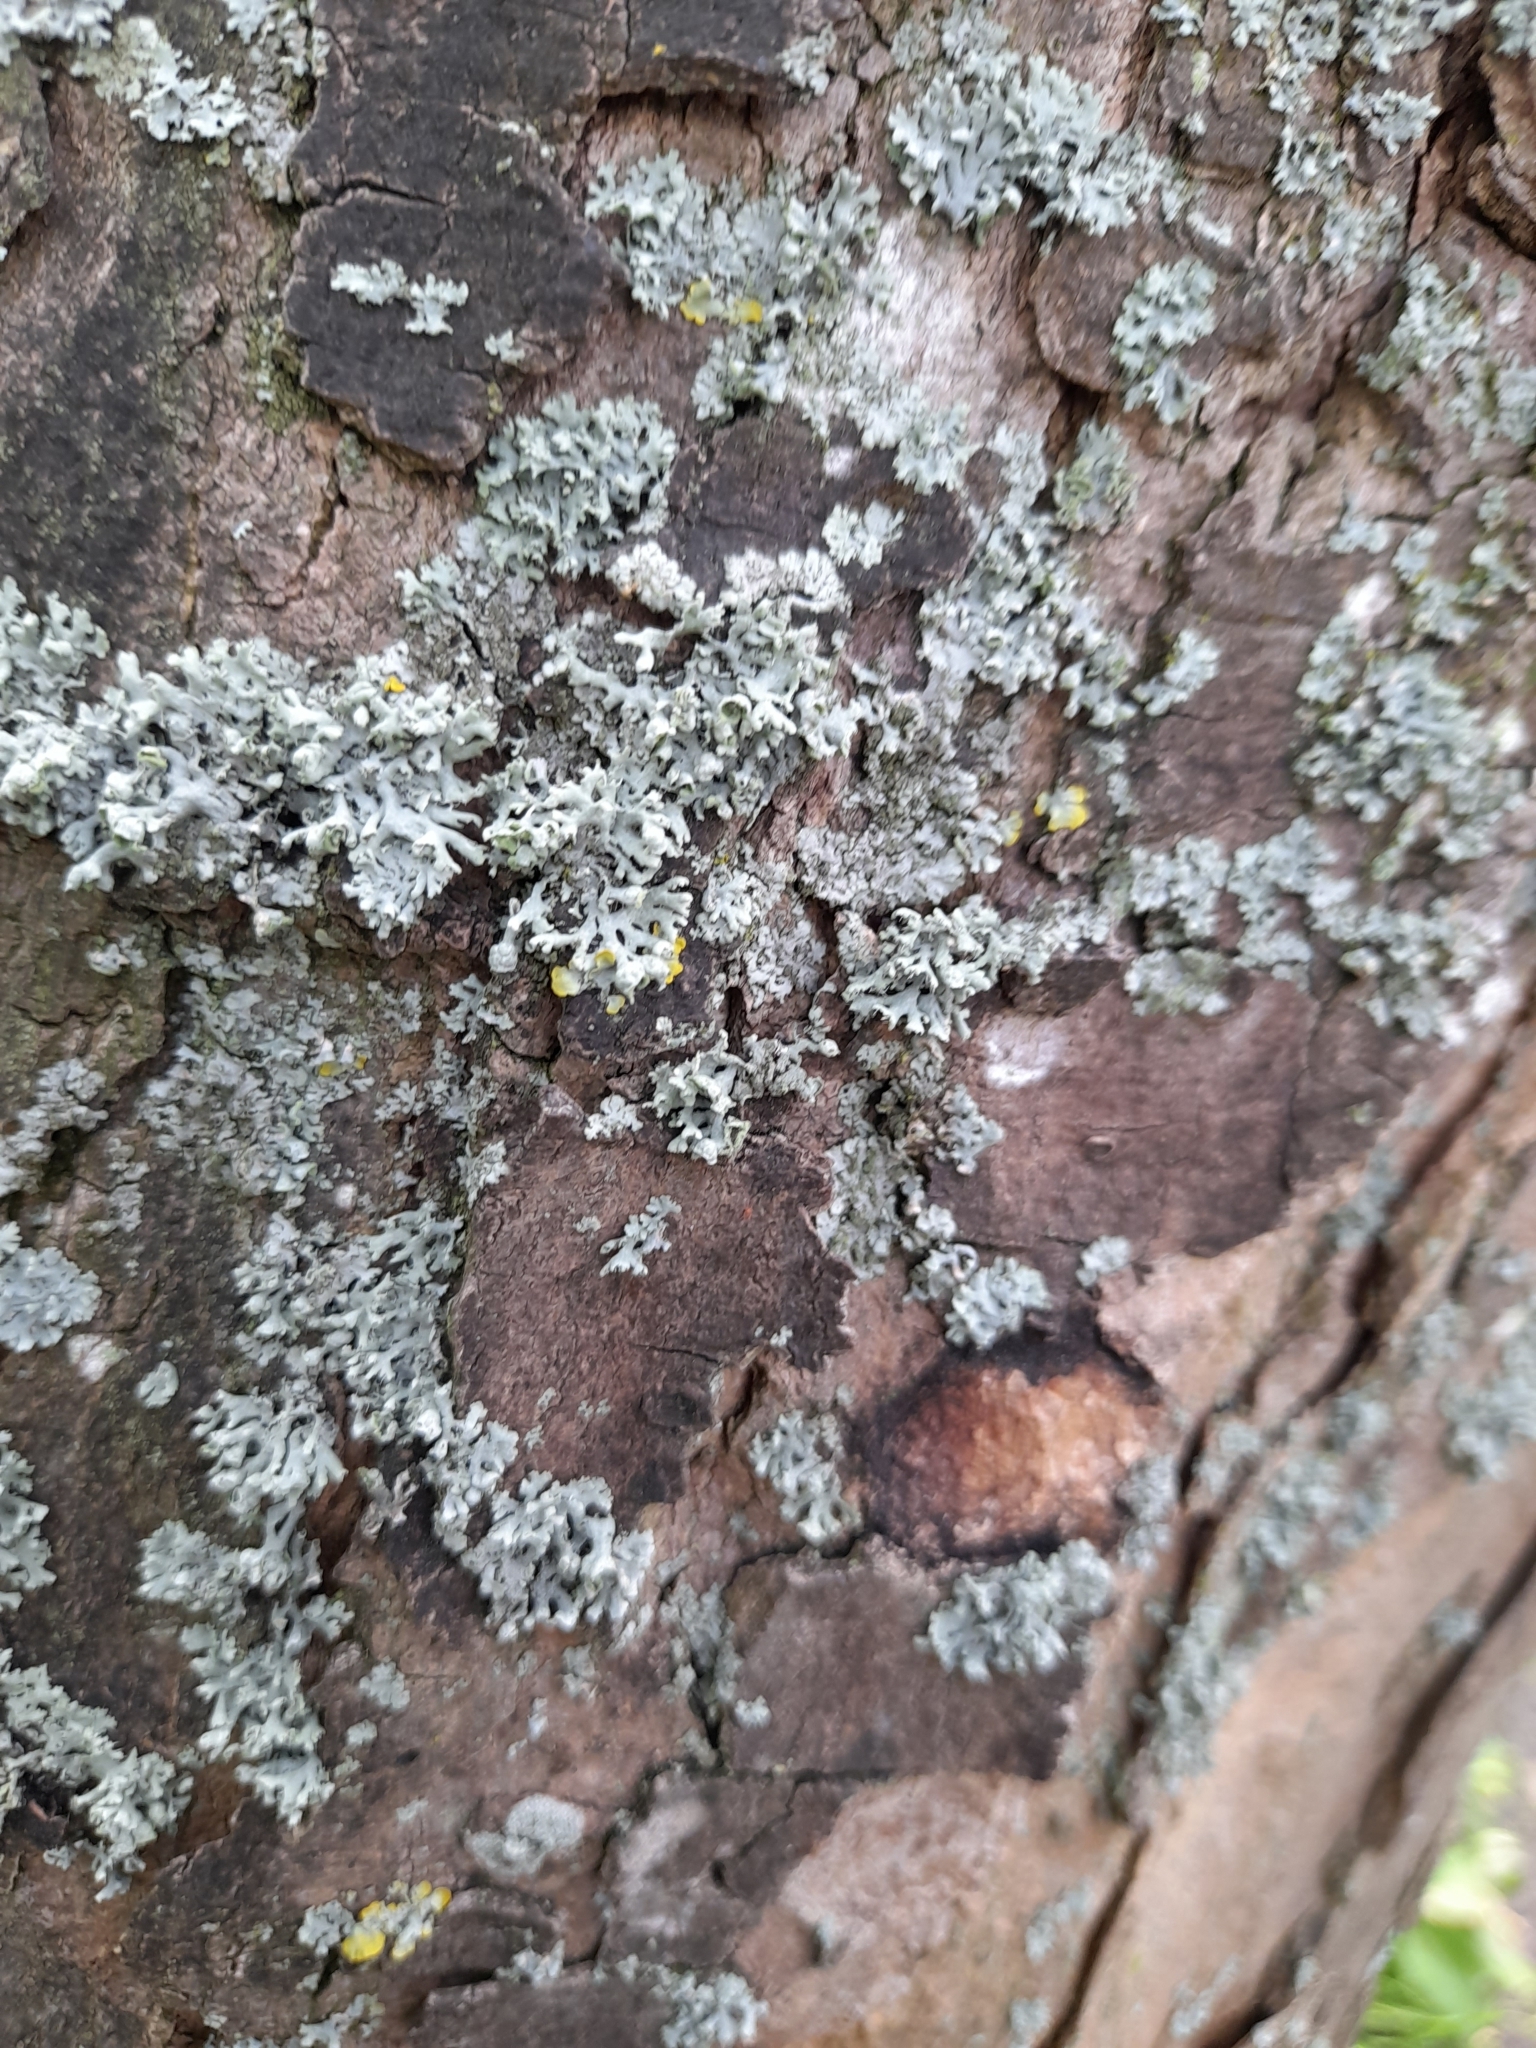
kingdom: Fungi
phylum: Ascomycota
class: Lecanoromycetes
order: Lecanorales
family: Parmeliaceae
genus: Hypogymnia
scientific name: Hypogymnia physodes
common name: Dark crottle
